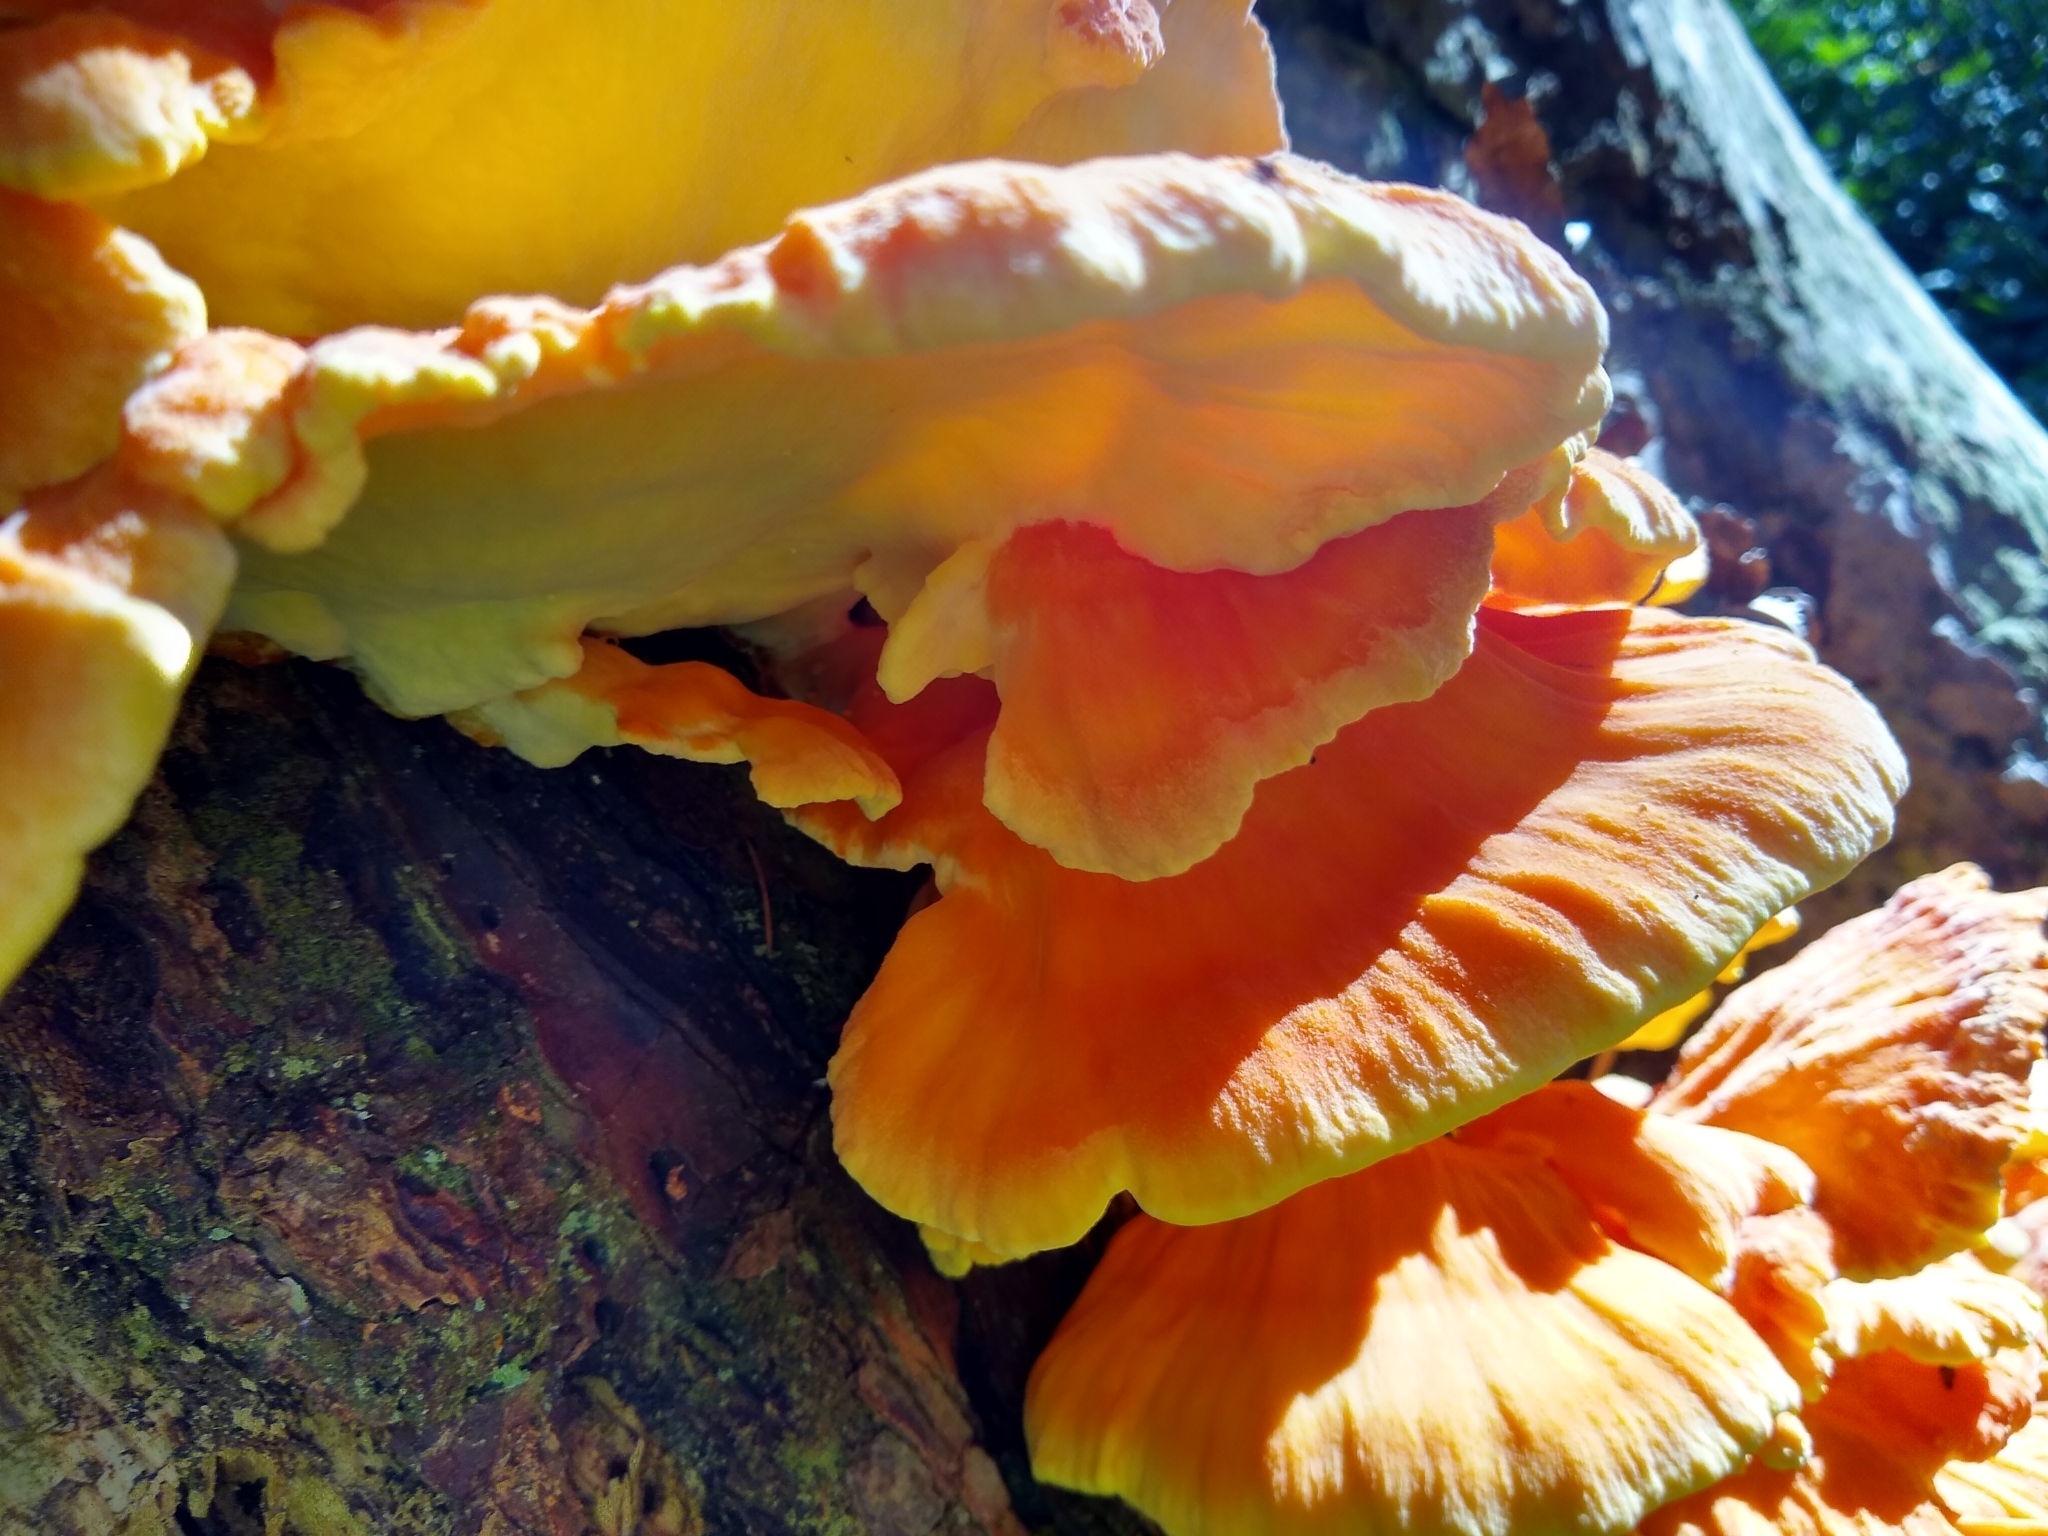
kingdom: Fungi
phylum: Basidiomycota
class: Agaricomycetes
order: Polyporales
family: Laetiporaceae
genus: Laetiporus
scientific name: Laetiporus conifericola
